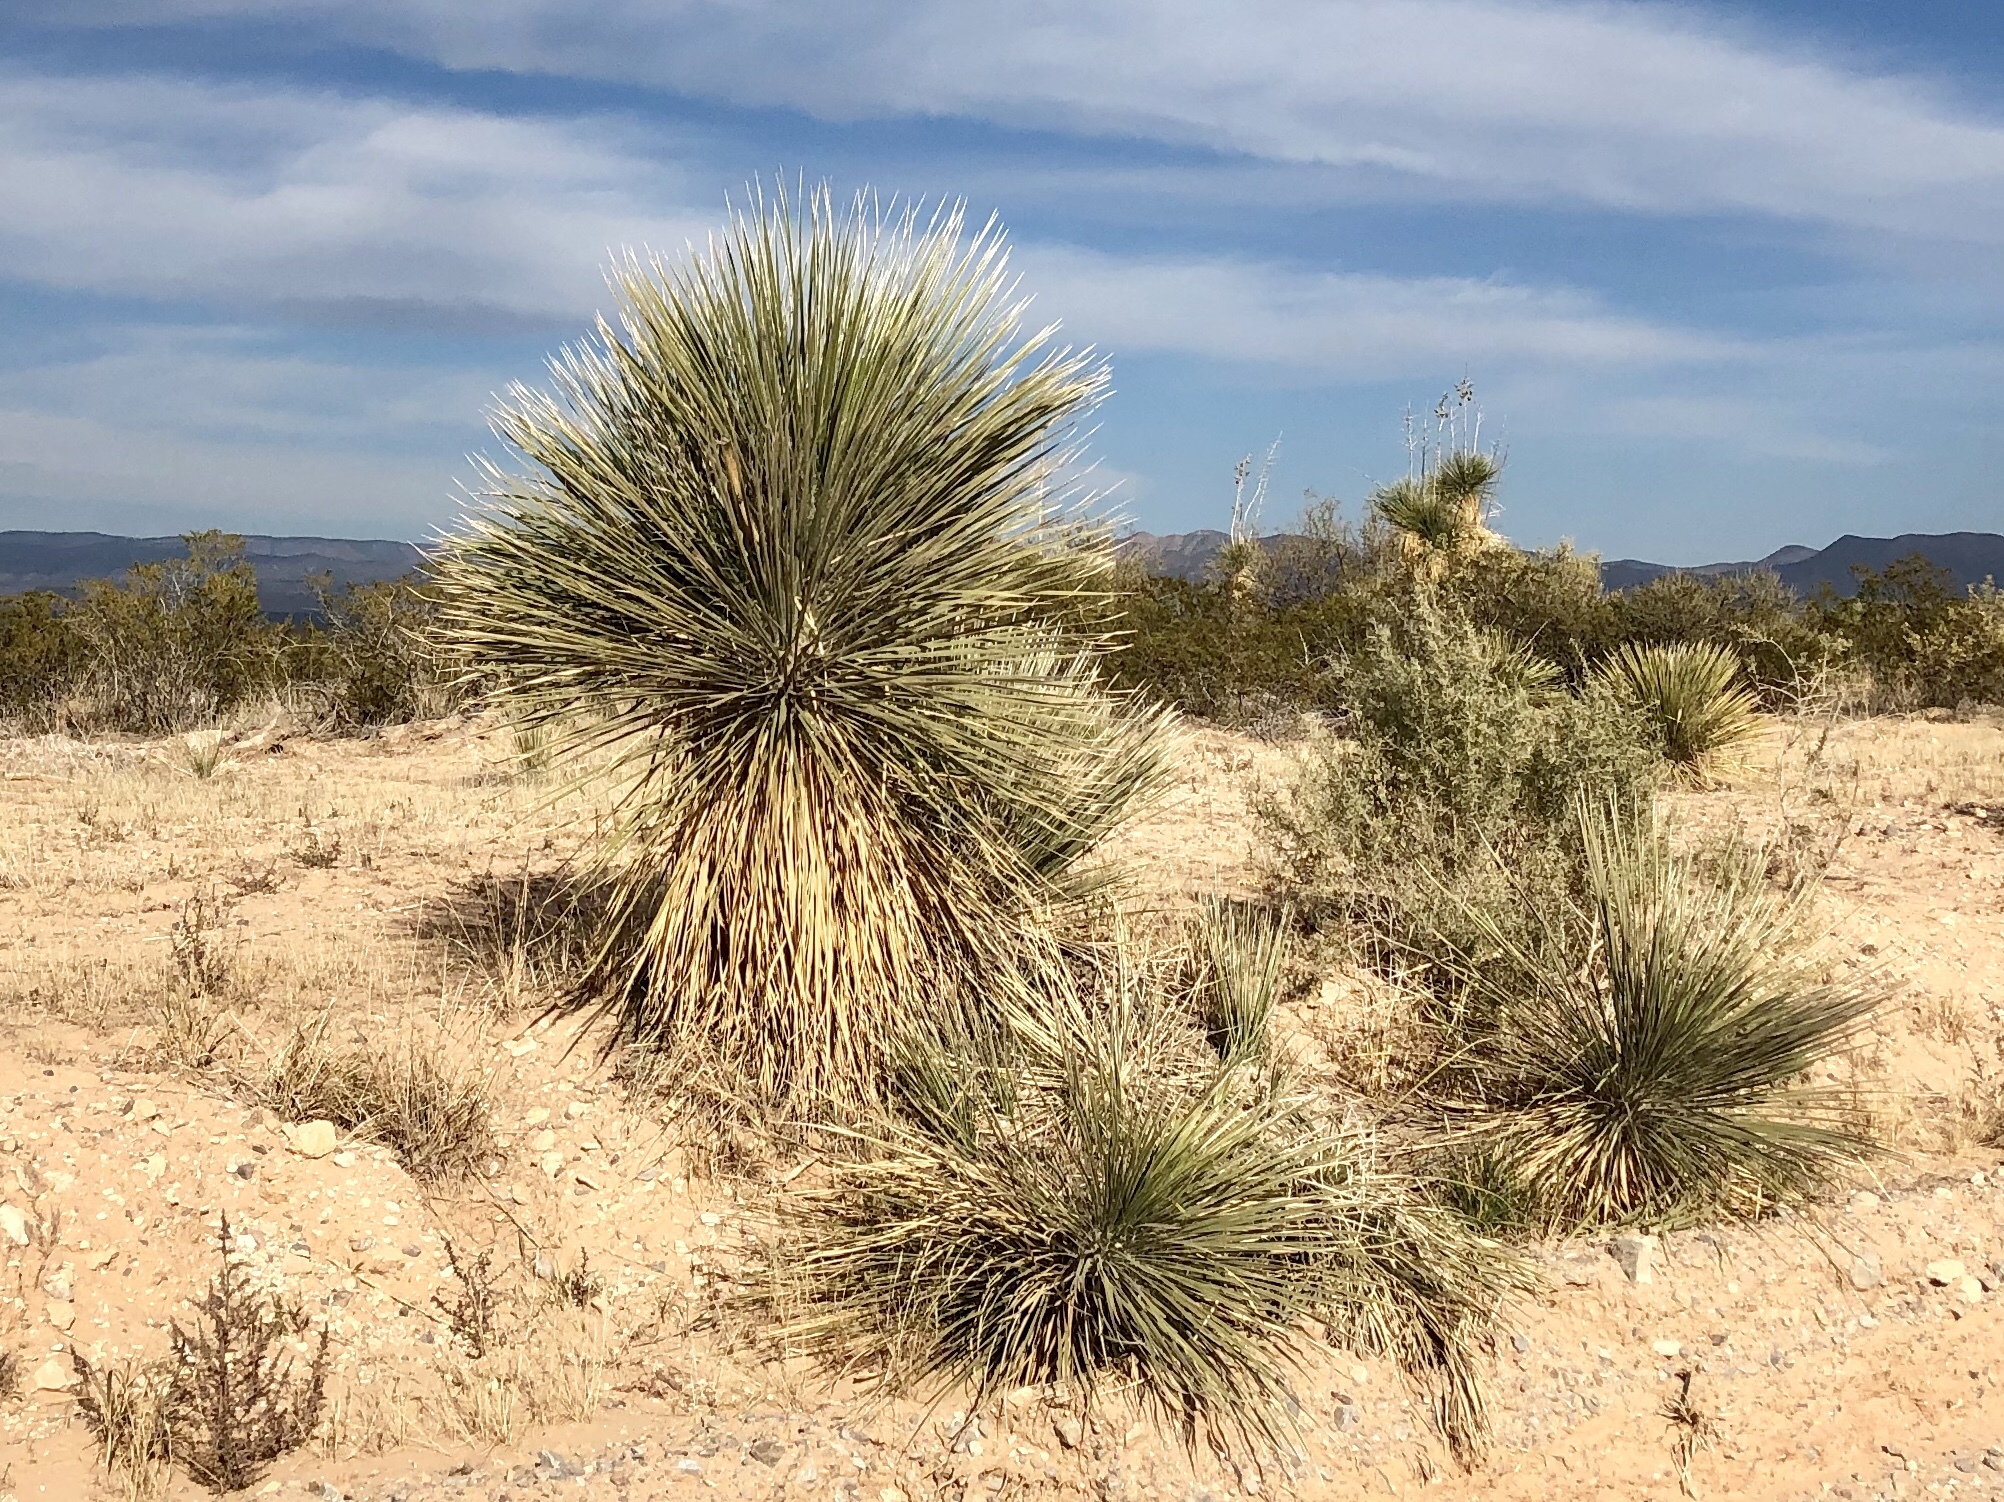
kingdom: Plantae
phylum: Tracheophyta
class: Liliopsida
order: Asparagales
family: Asparagaceae
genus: Yucca
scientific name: Yucca elata
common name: Palmella
